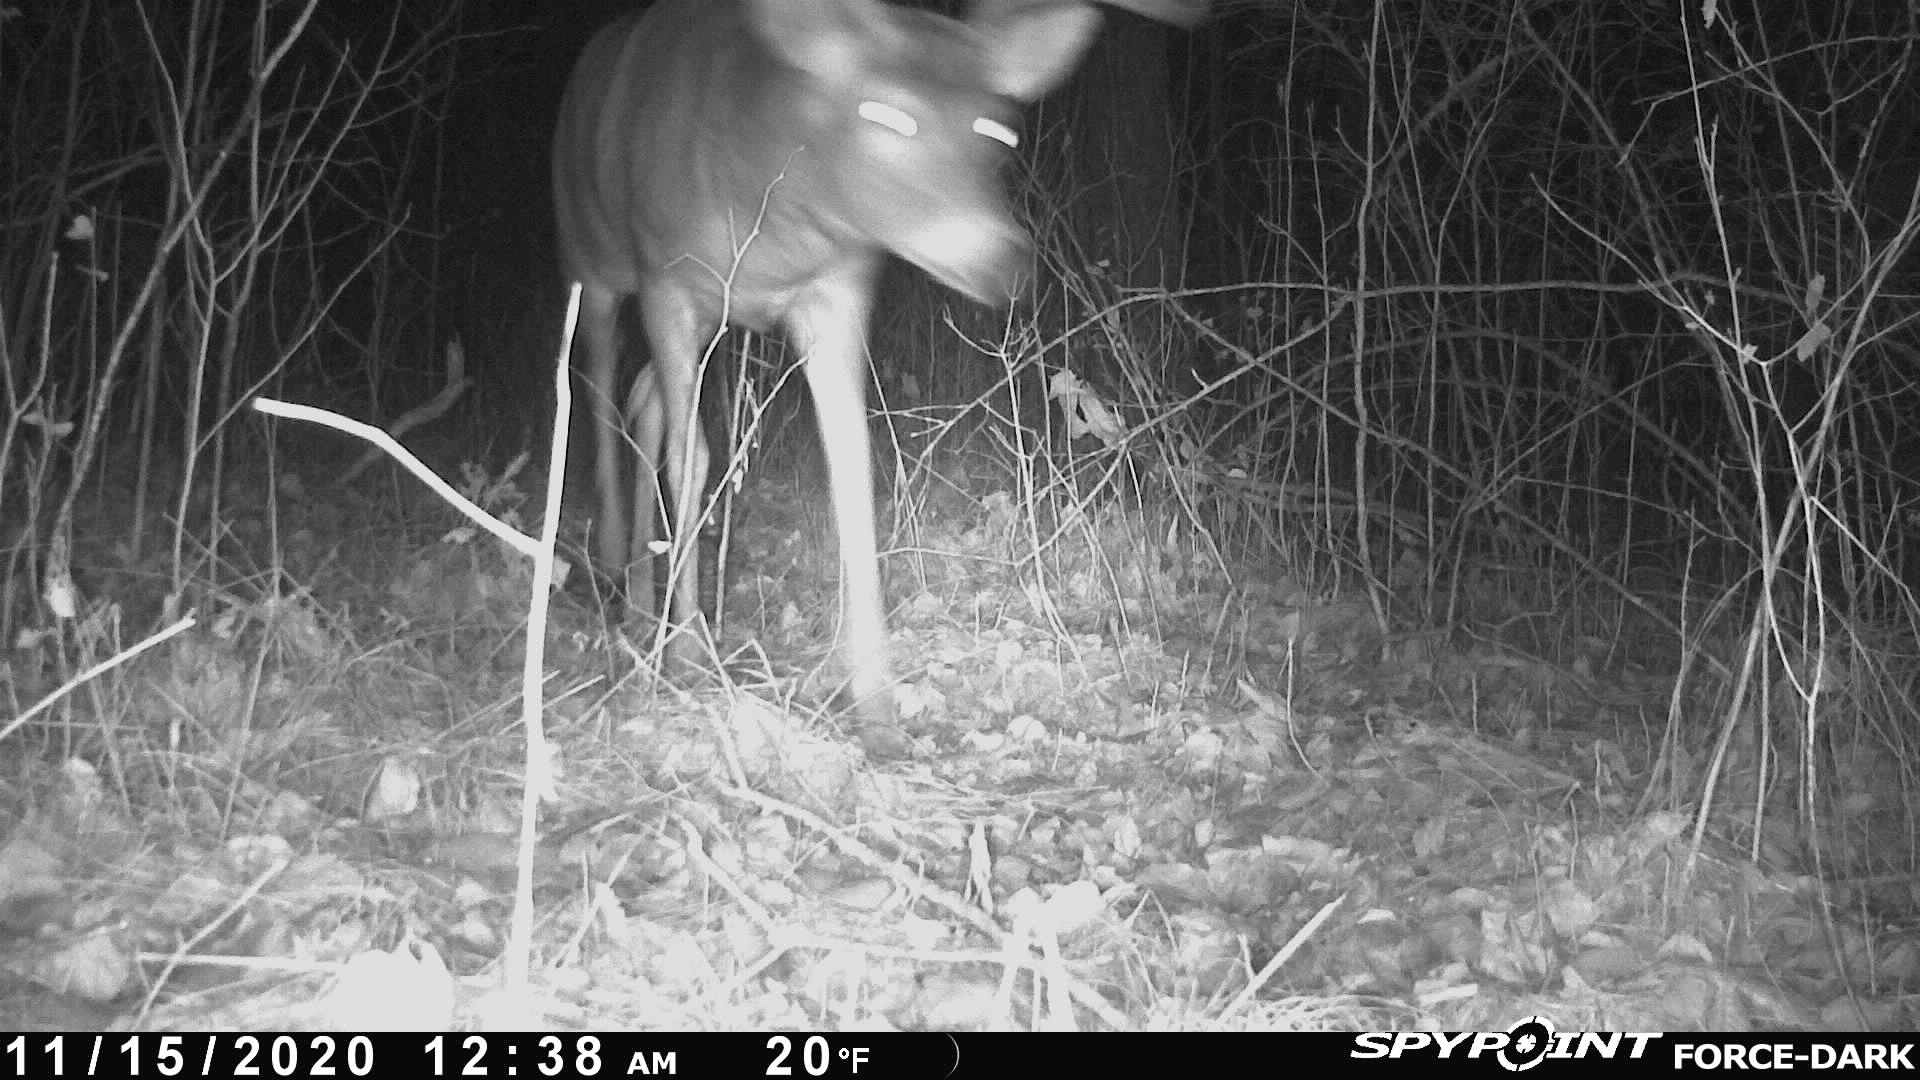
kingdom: Animalia
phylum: Chordata
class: Mammalia
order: Artiodactyla
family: Cervidae
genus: Odocoileus
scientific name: Odocoileus virginianus
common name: White-tailed deer
